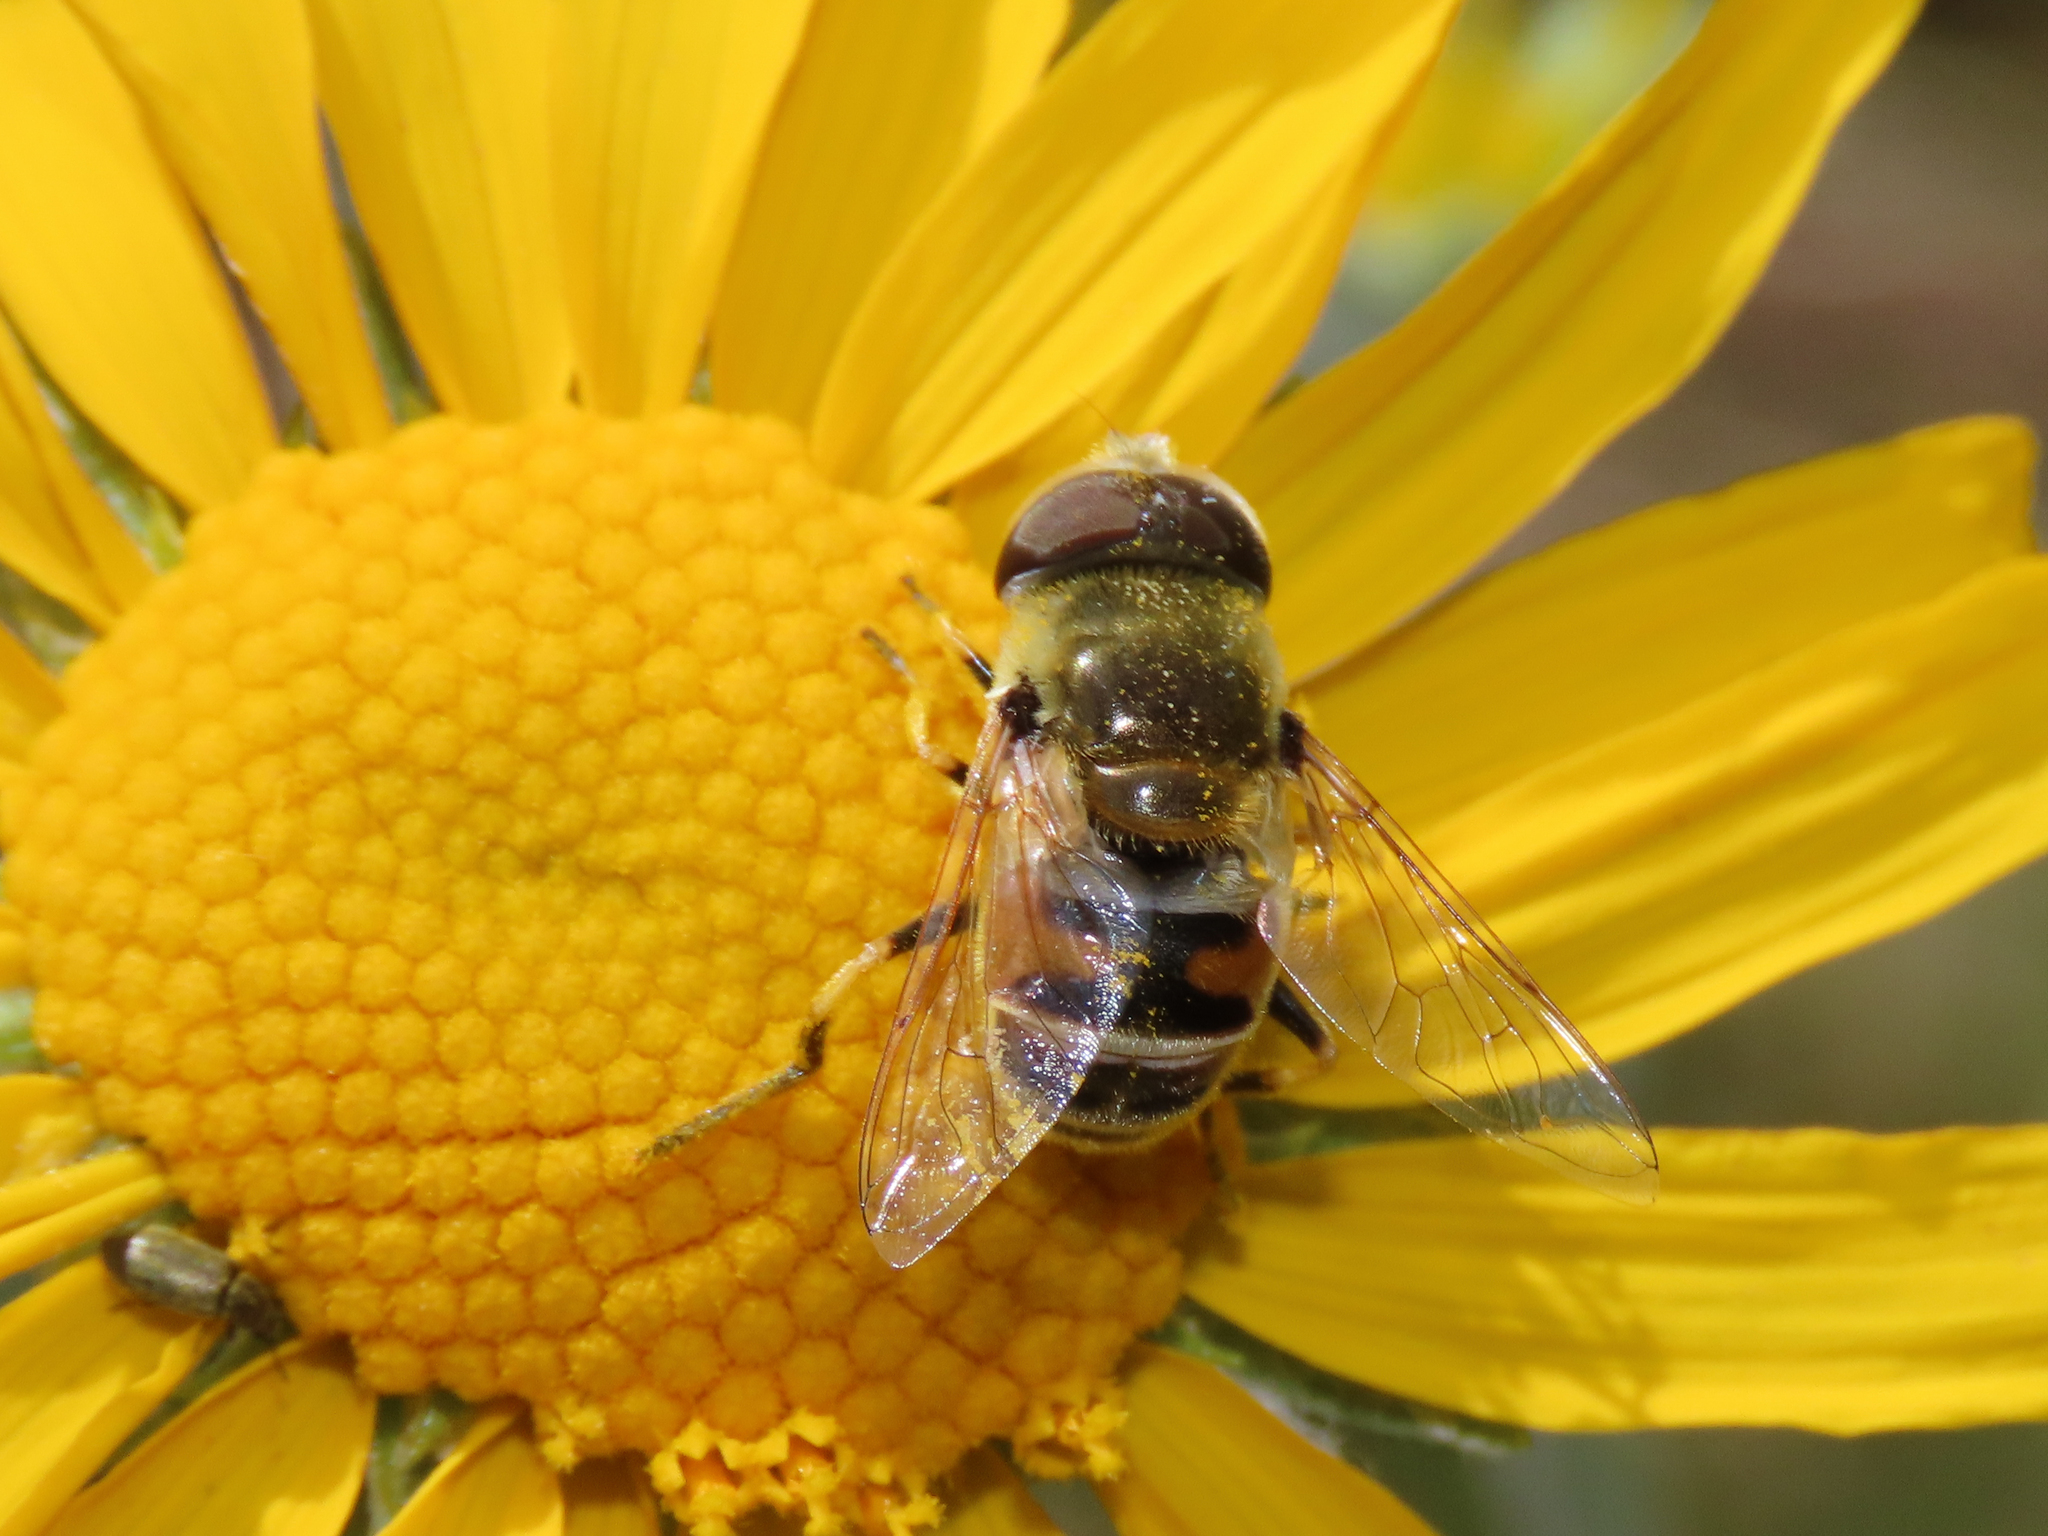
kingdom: Animalia
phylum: Arthropoda
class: Insecta
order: Diptera
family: Syrphidae
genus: Eristalis
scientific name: Eristalis stipator
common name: Yellow-shouldered drone fly
